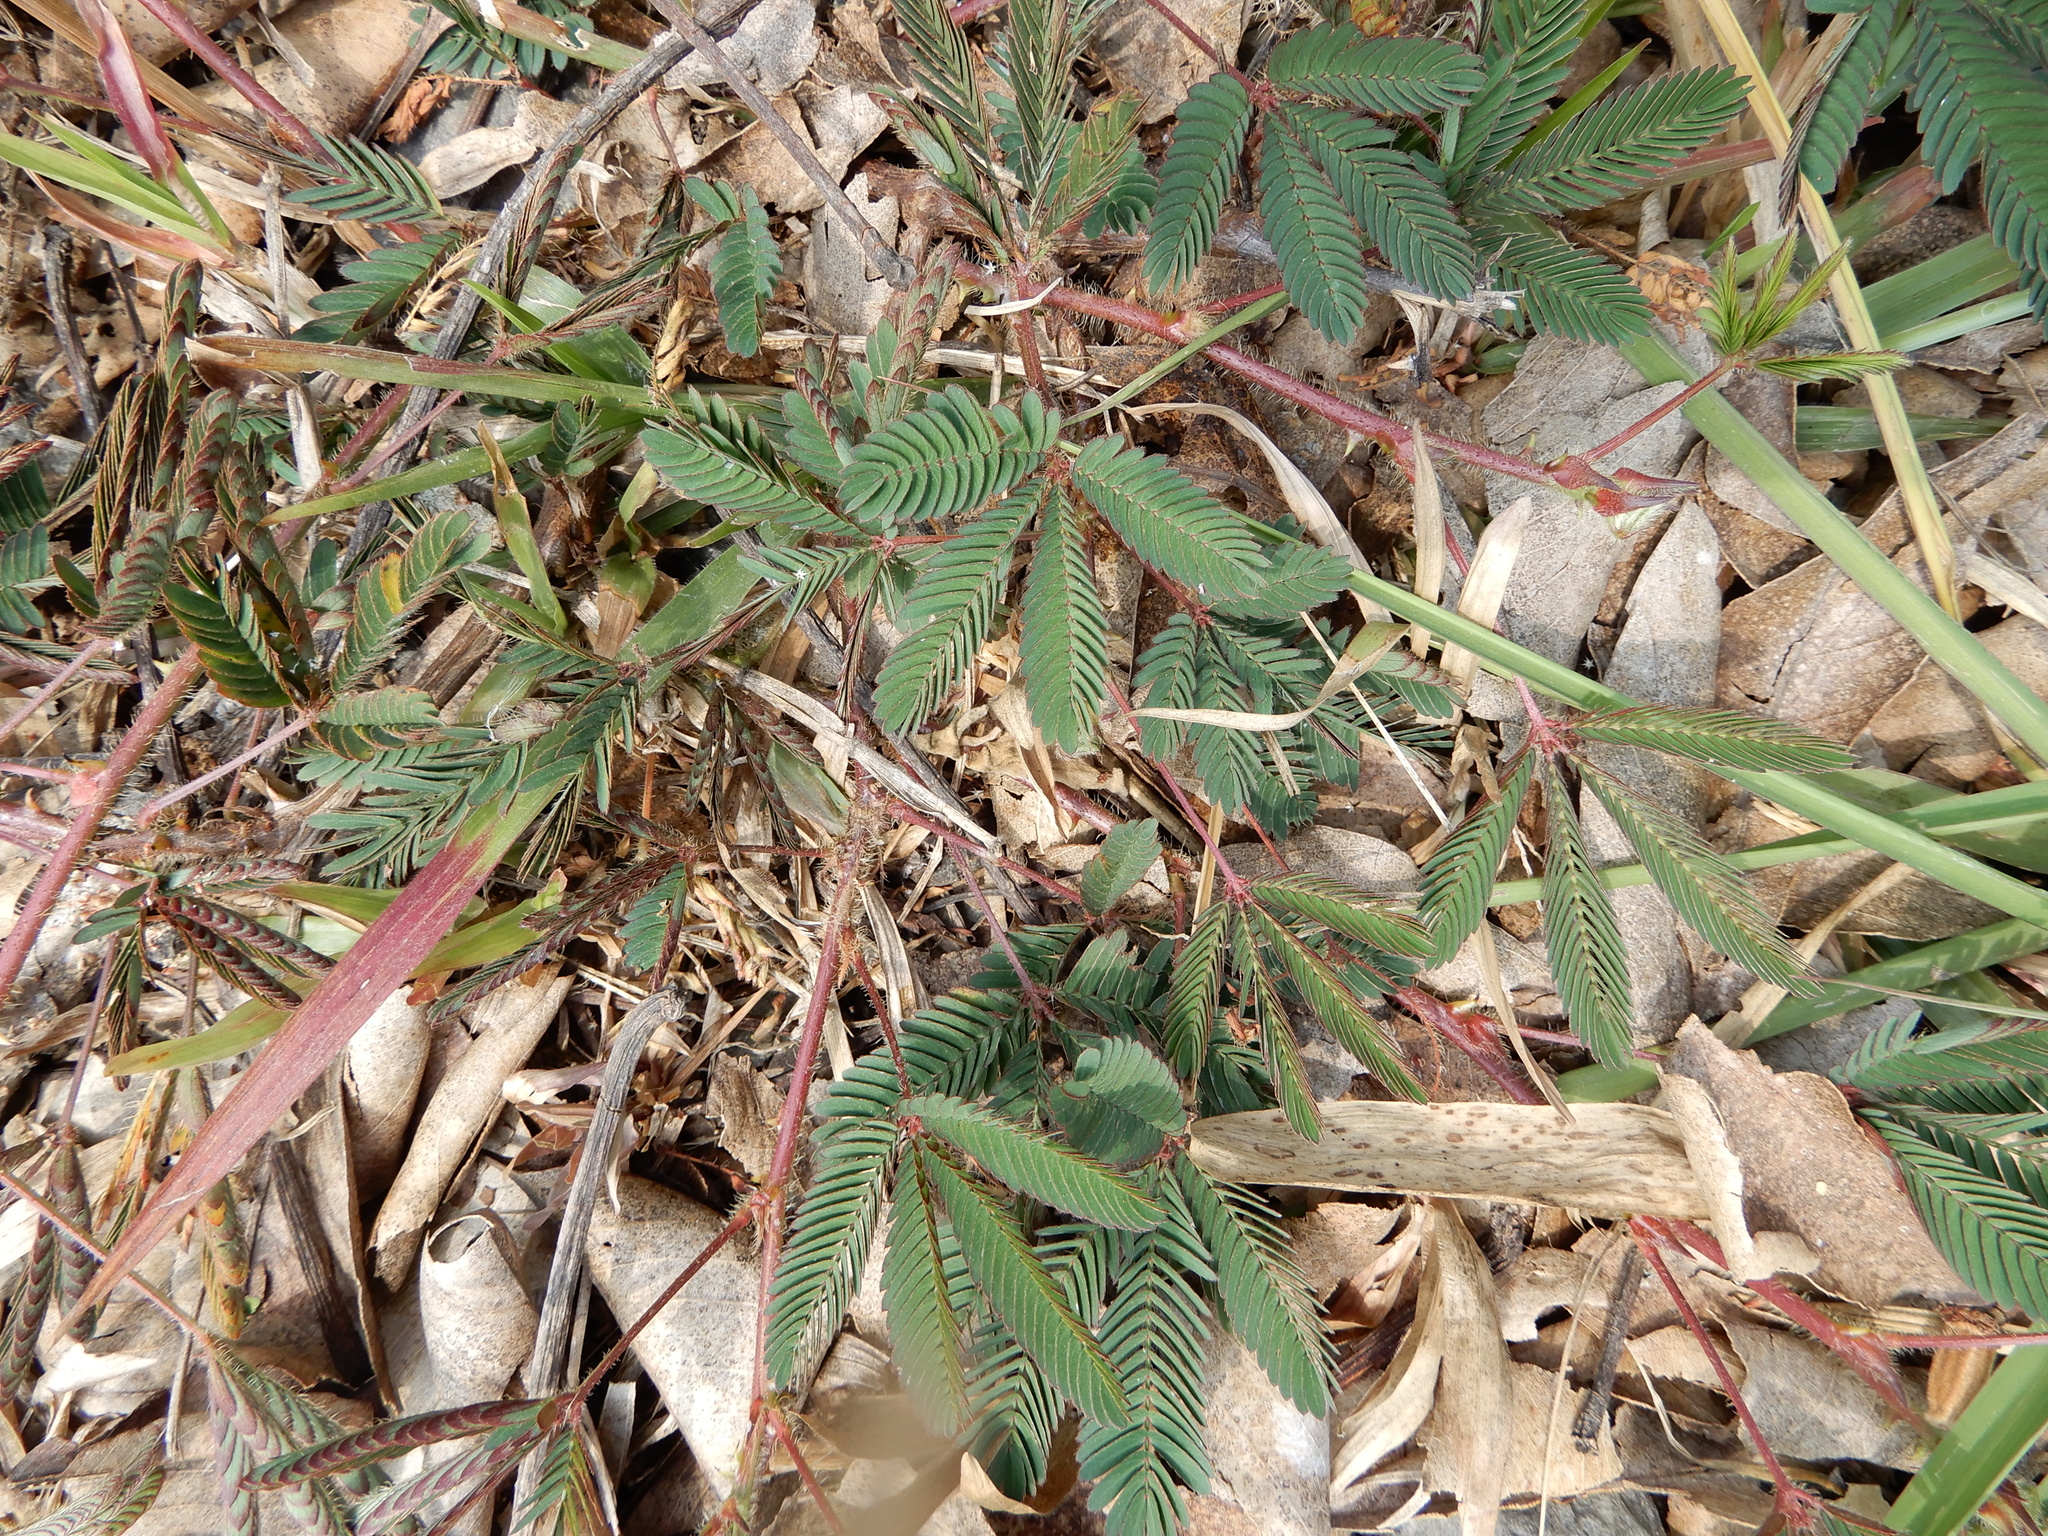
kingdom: Plantae
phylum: Tracheophyta
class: Magnoliopsida
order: Fabales
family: Fabaceae
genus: Mimosa
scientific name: Mimosa pudica
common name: Sensitive plant
